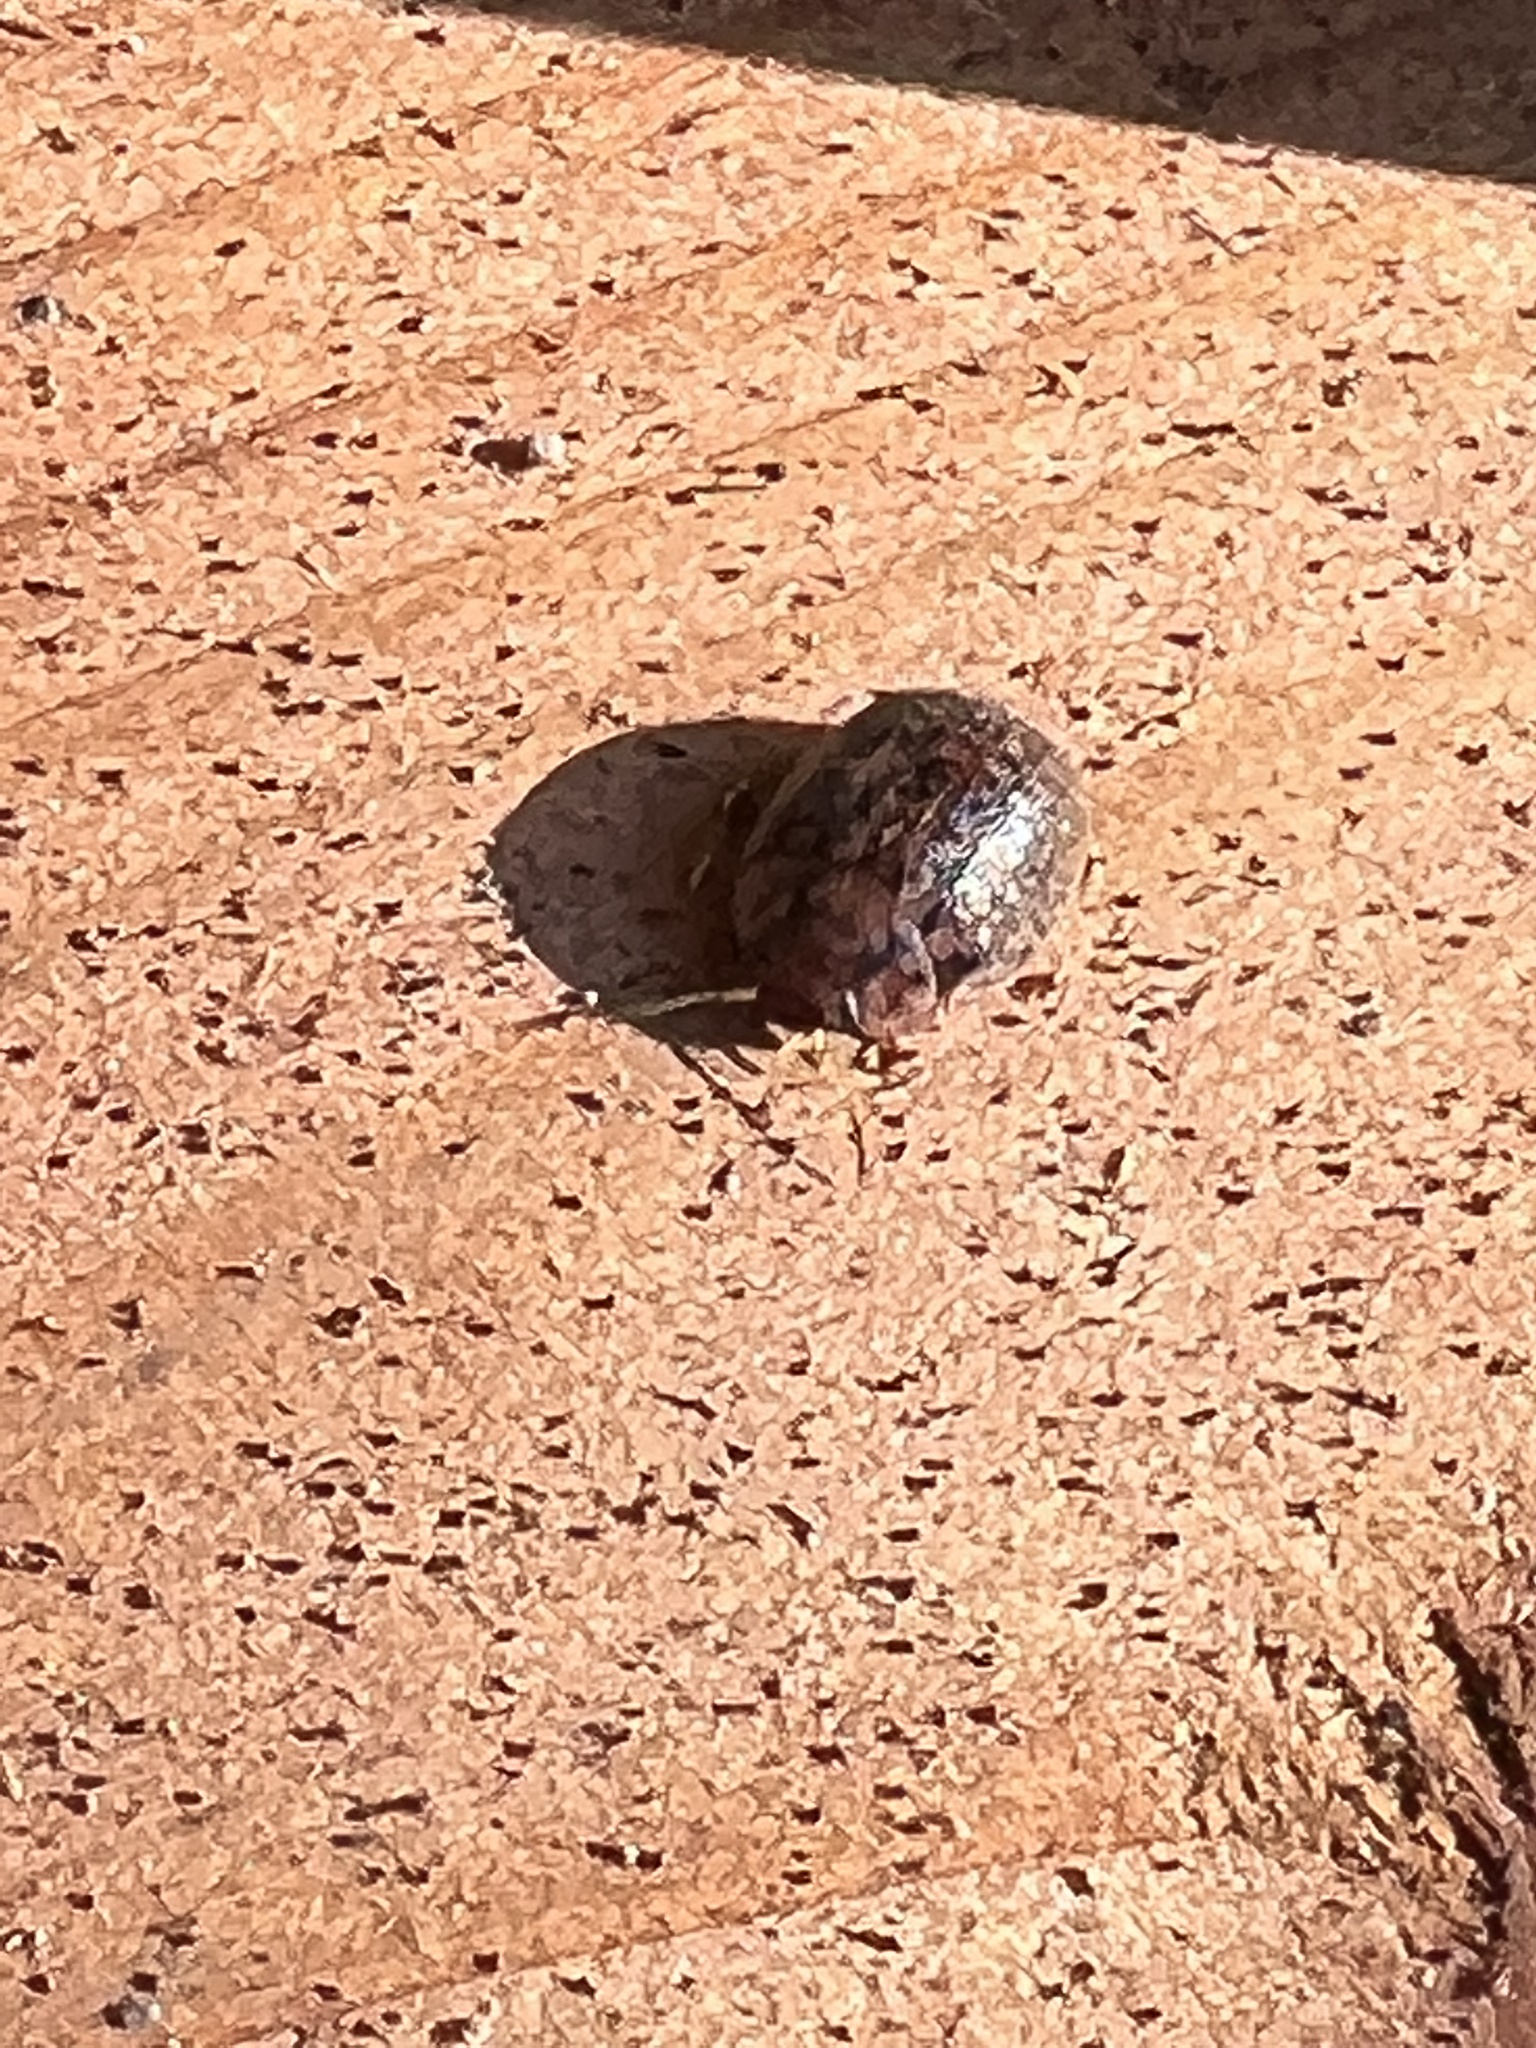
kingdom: Animalia
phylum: Arthropoda
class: Insecta
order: Coleoptera
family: Chrysomelidae
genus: Trachymela
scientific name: Trachymela sloanei
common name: Australian tortoise beetle
